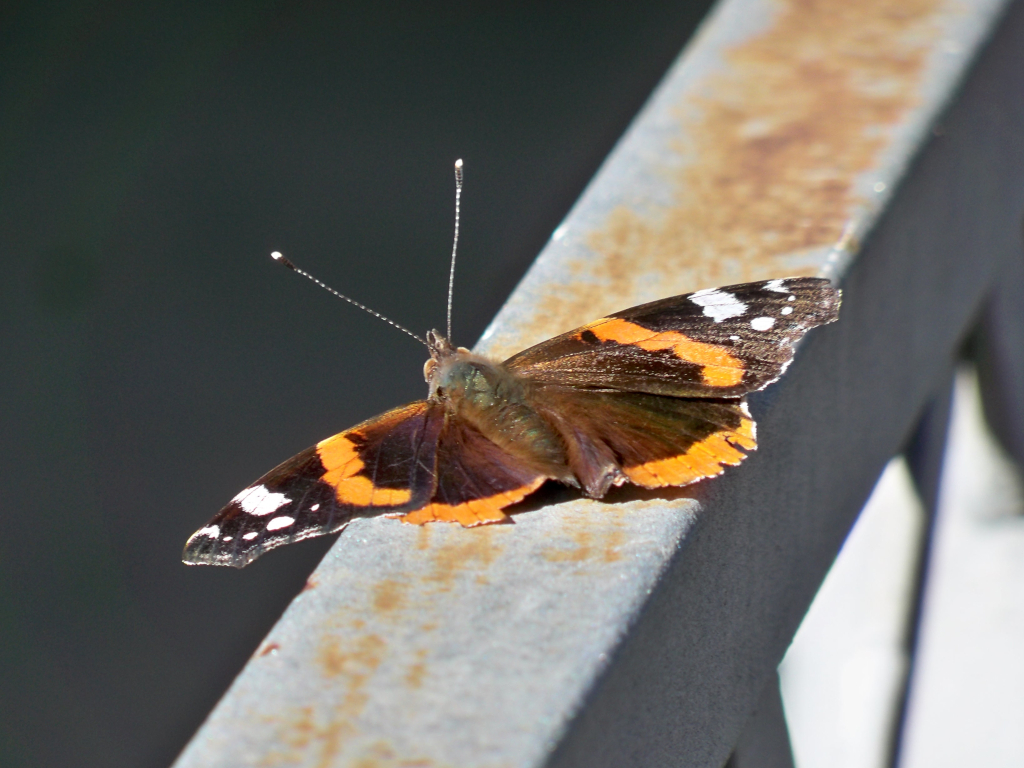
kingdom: Animalia
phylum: Arthropoda
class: Insecta
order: Lepidoptera
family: Nymphalidae
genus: Vanessa
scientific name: Vanessa atalanta
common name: Red admiral
